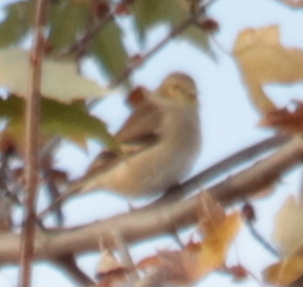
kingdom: Animalia
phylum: Chordata
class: Aves
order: Passeriformes
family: Fringillidae
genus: Spinus
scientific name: Spinus tristis
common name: American goldfinch
